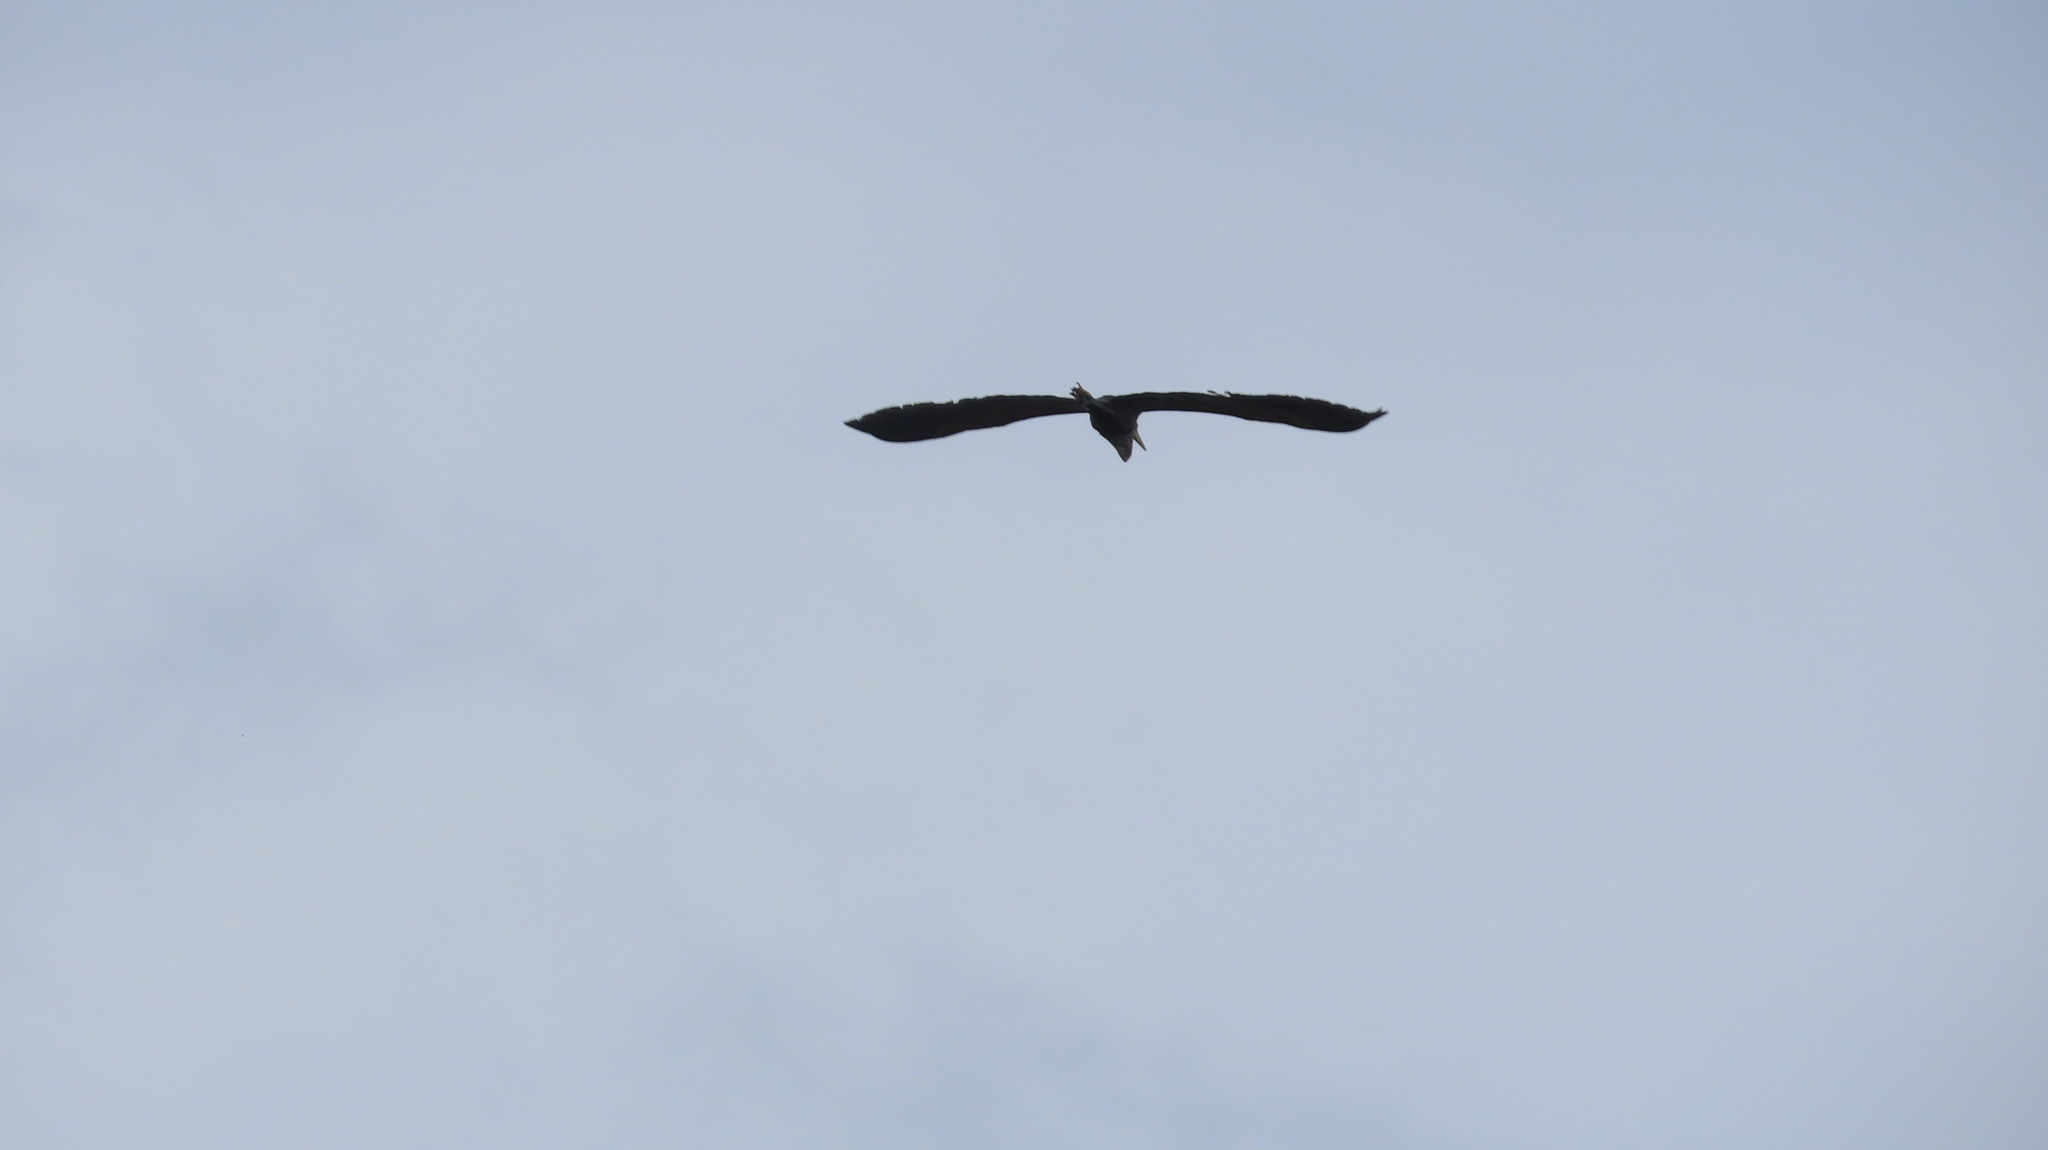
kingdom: Animalia
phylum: Chordata
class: Aves
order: Pelecaniformes
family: Ardeidae
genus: Ardea
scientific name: Ardea purpurea
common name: Purple heron
